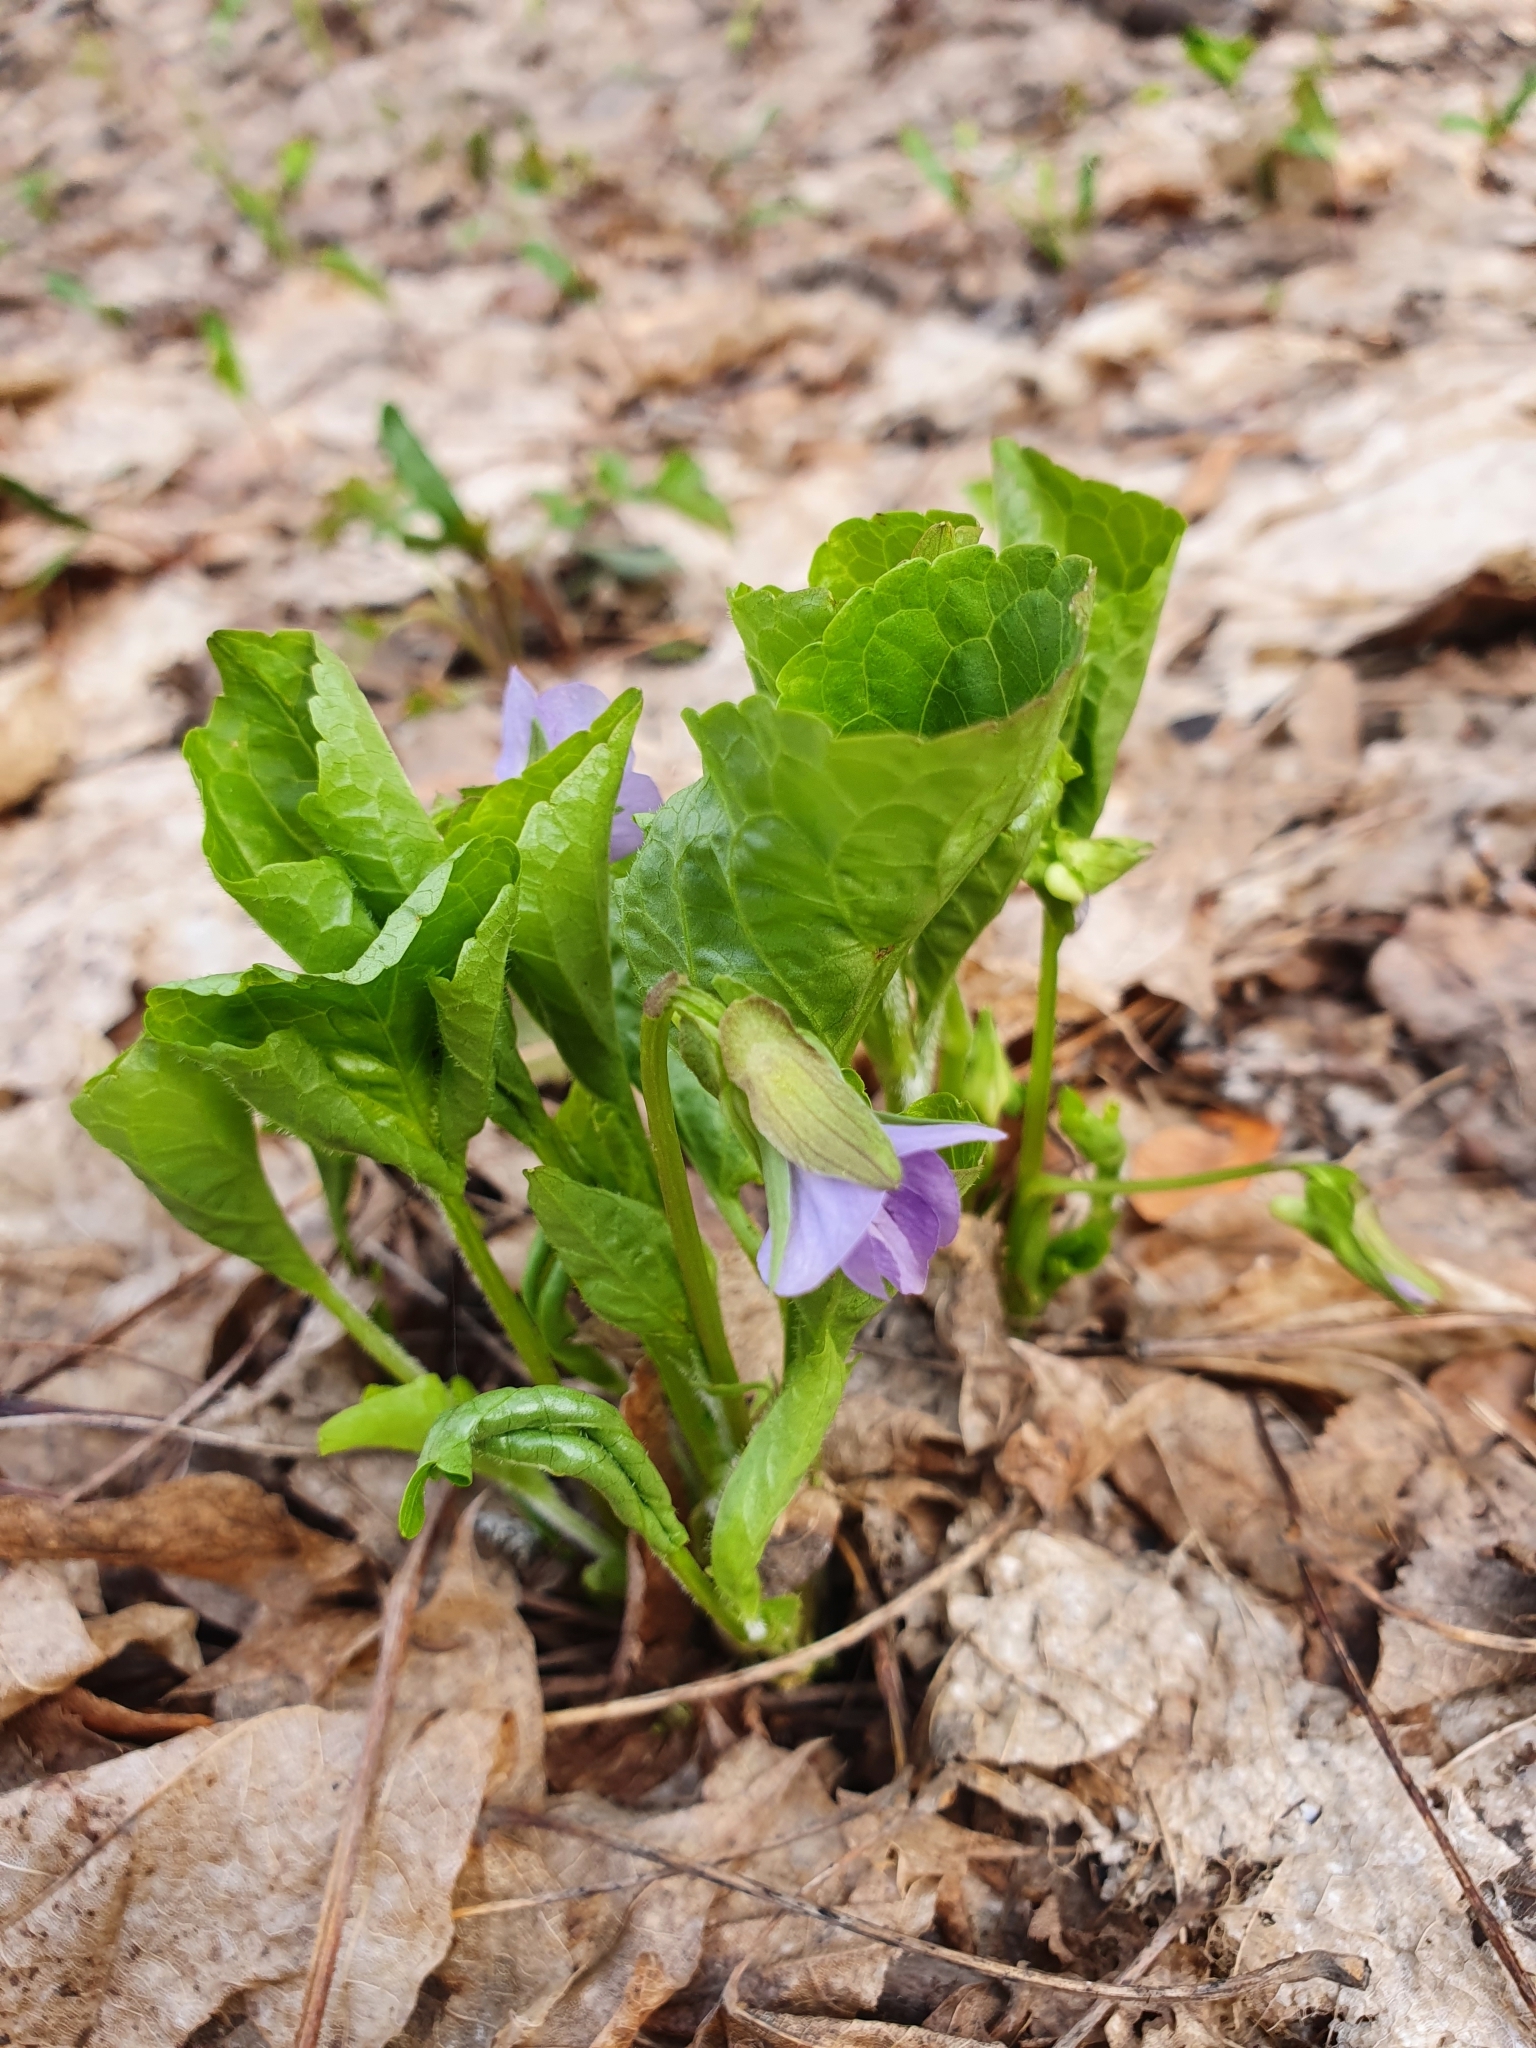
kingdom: Plantae
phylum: Tracheophyta
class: Magnoliopsida
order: Malpighiales
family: Violaceae
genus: Viola
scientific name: Viola mirabilis
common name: Wonder violet
